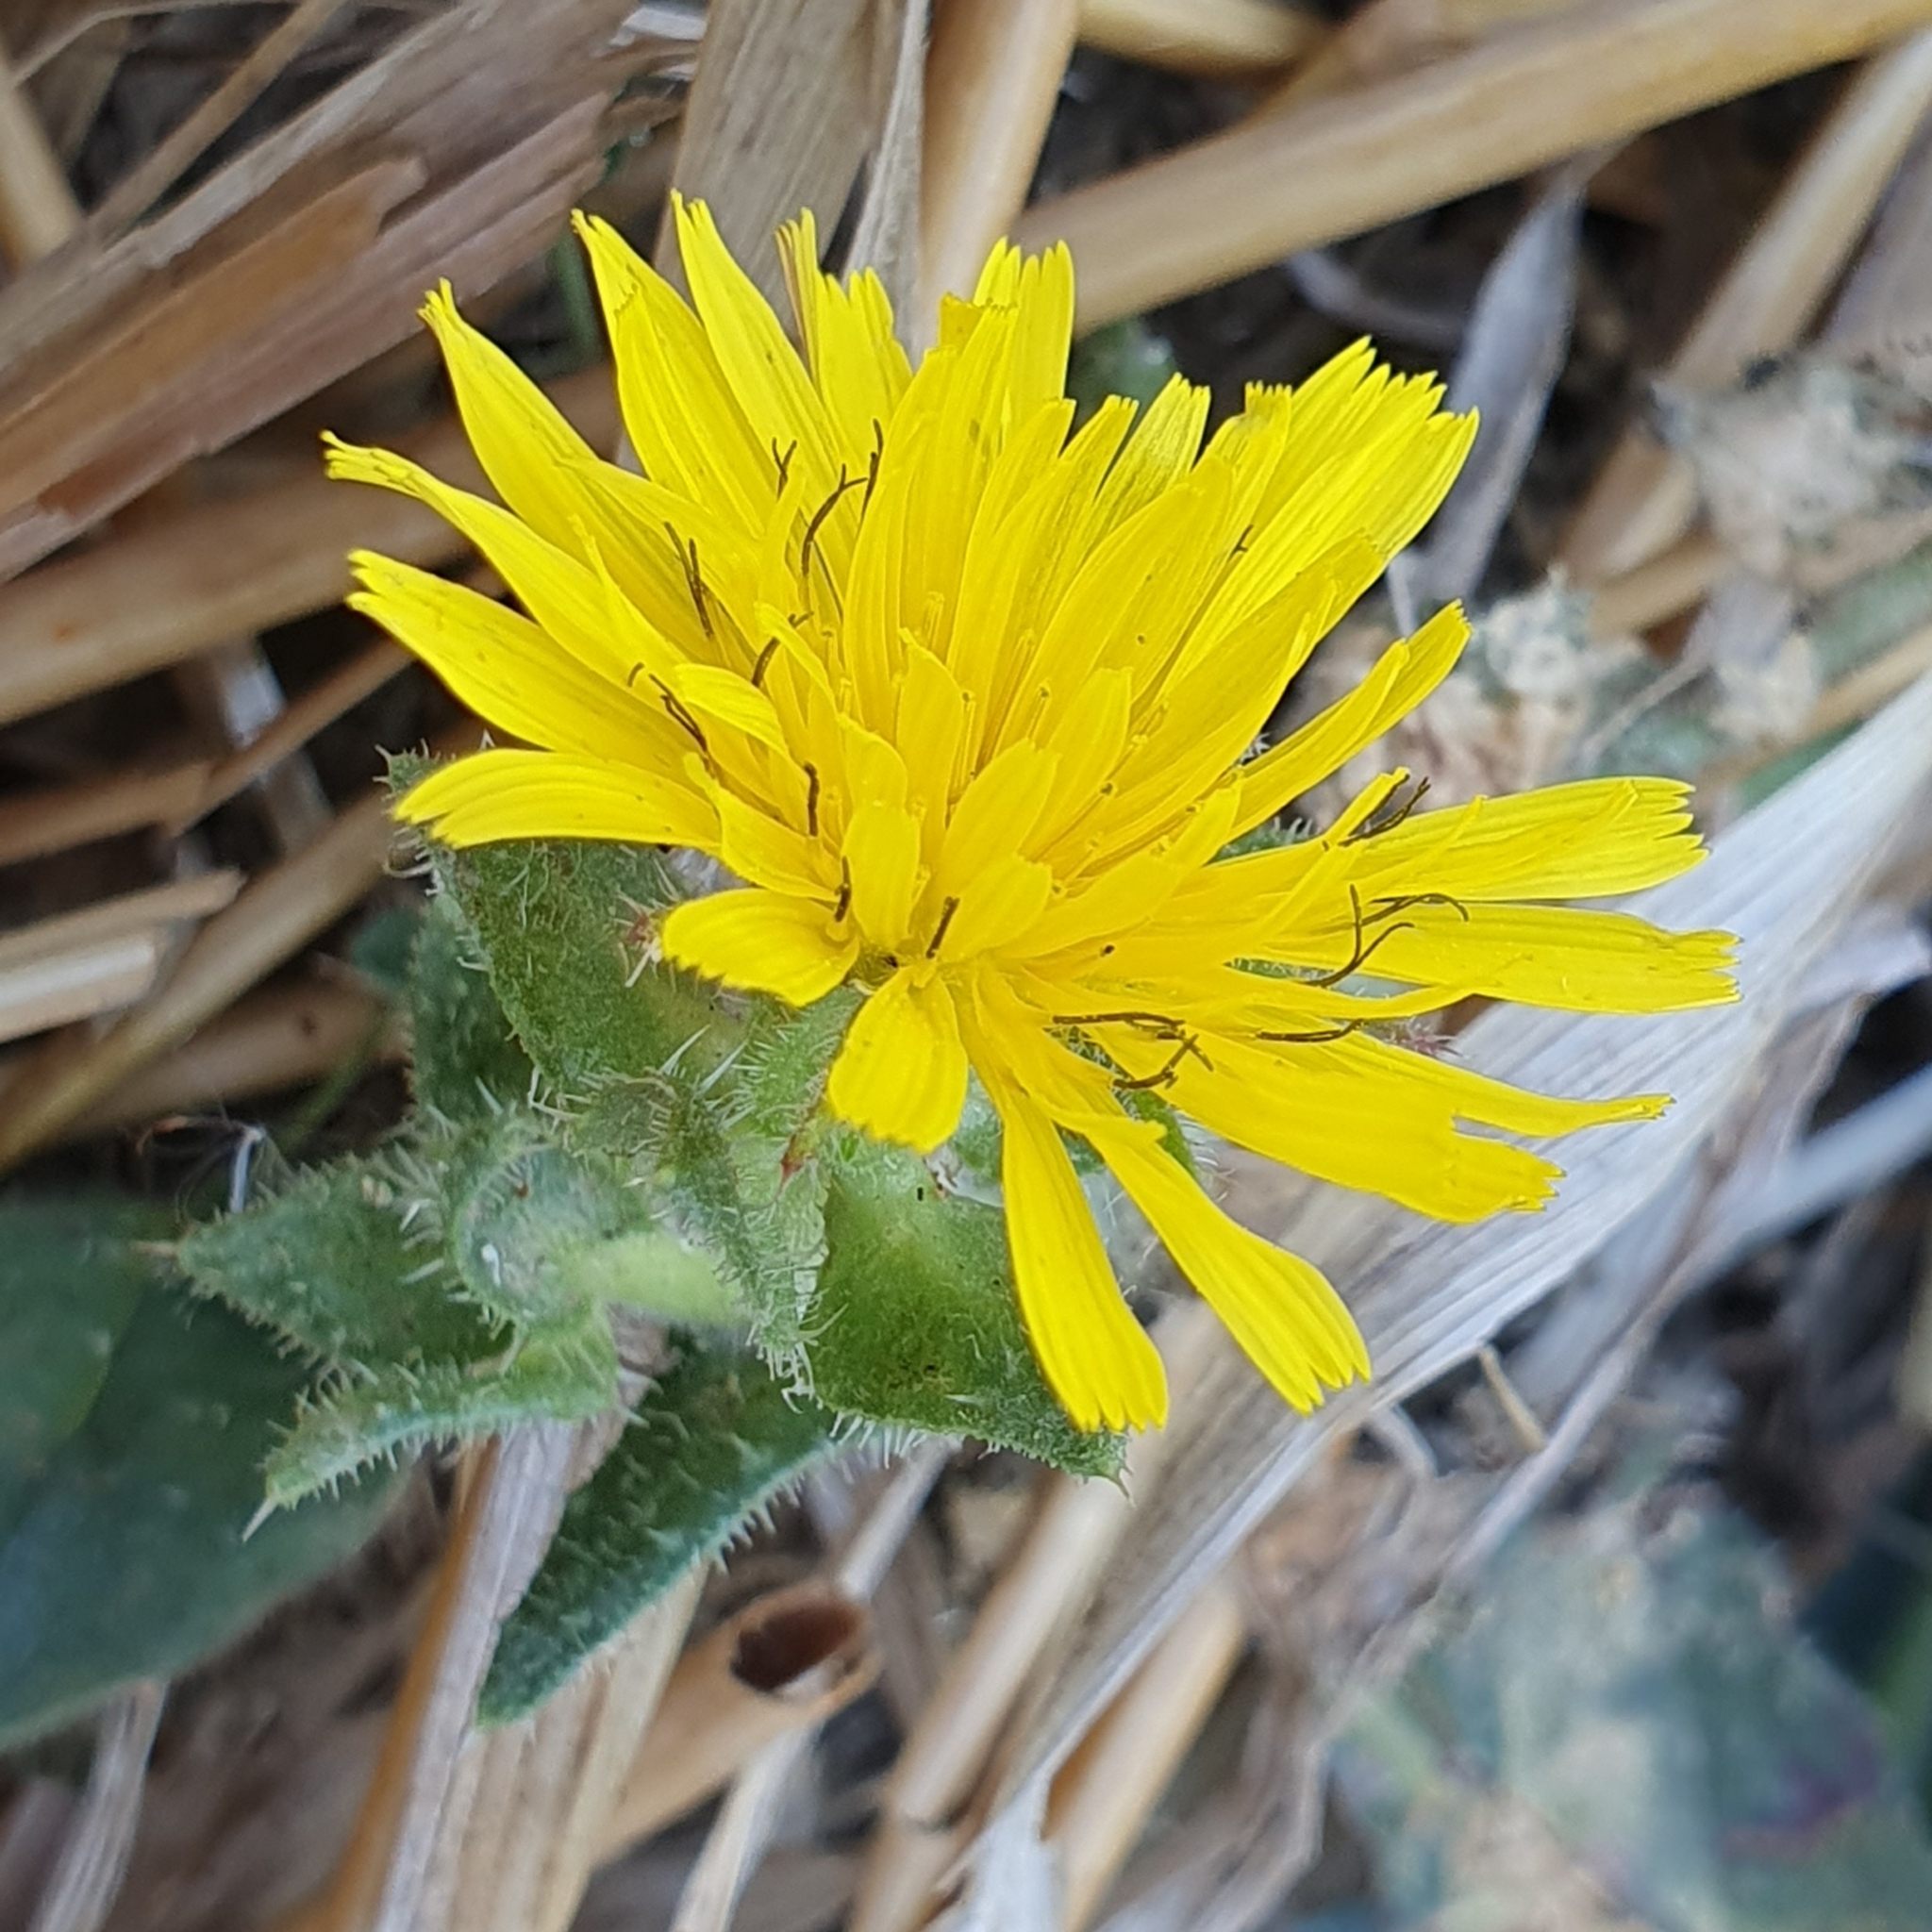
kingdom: Plantae
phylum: Tracheophyta
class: Magnoliopsida
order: Asterales
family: Asteraceae
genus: Helminthotheca
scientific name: Helminthotheca echioides
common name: Ox-tongue
